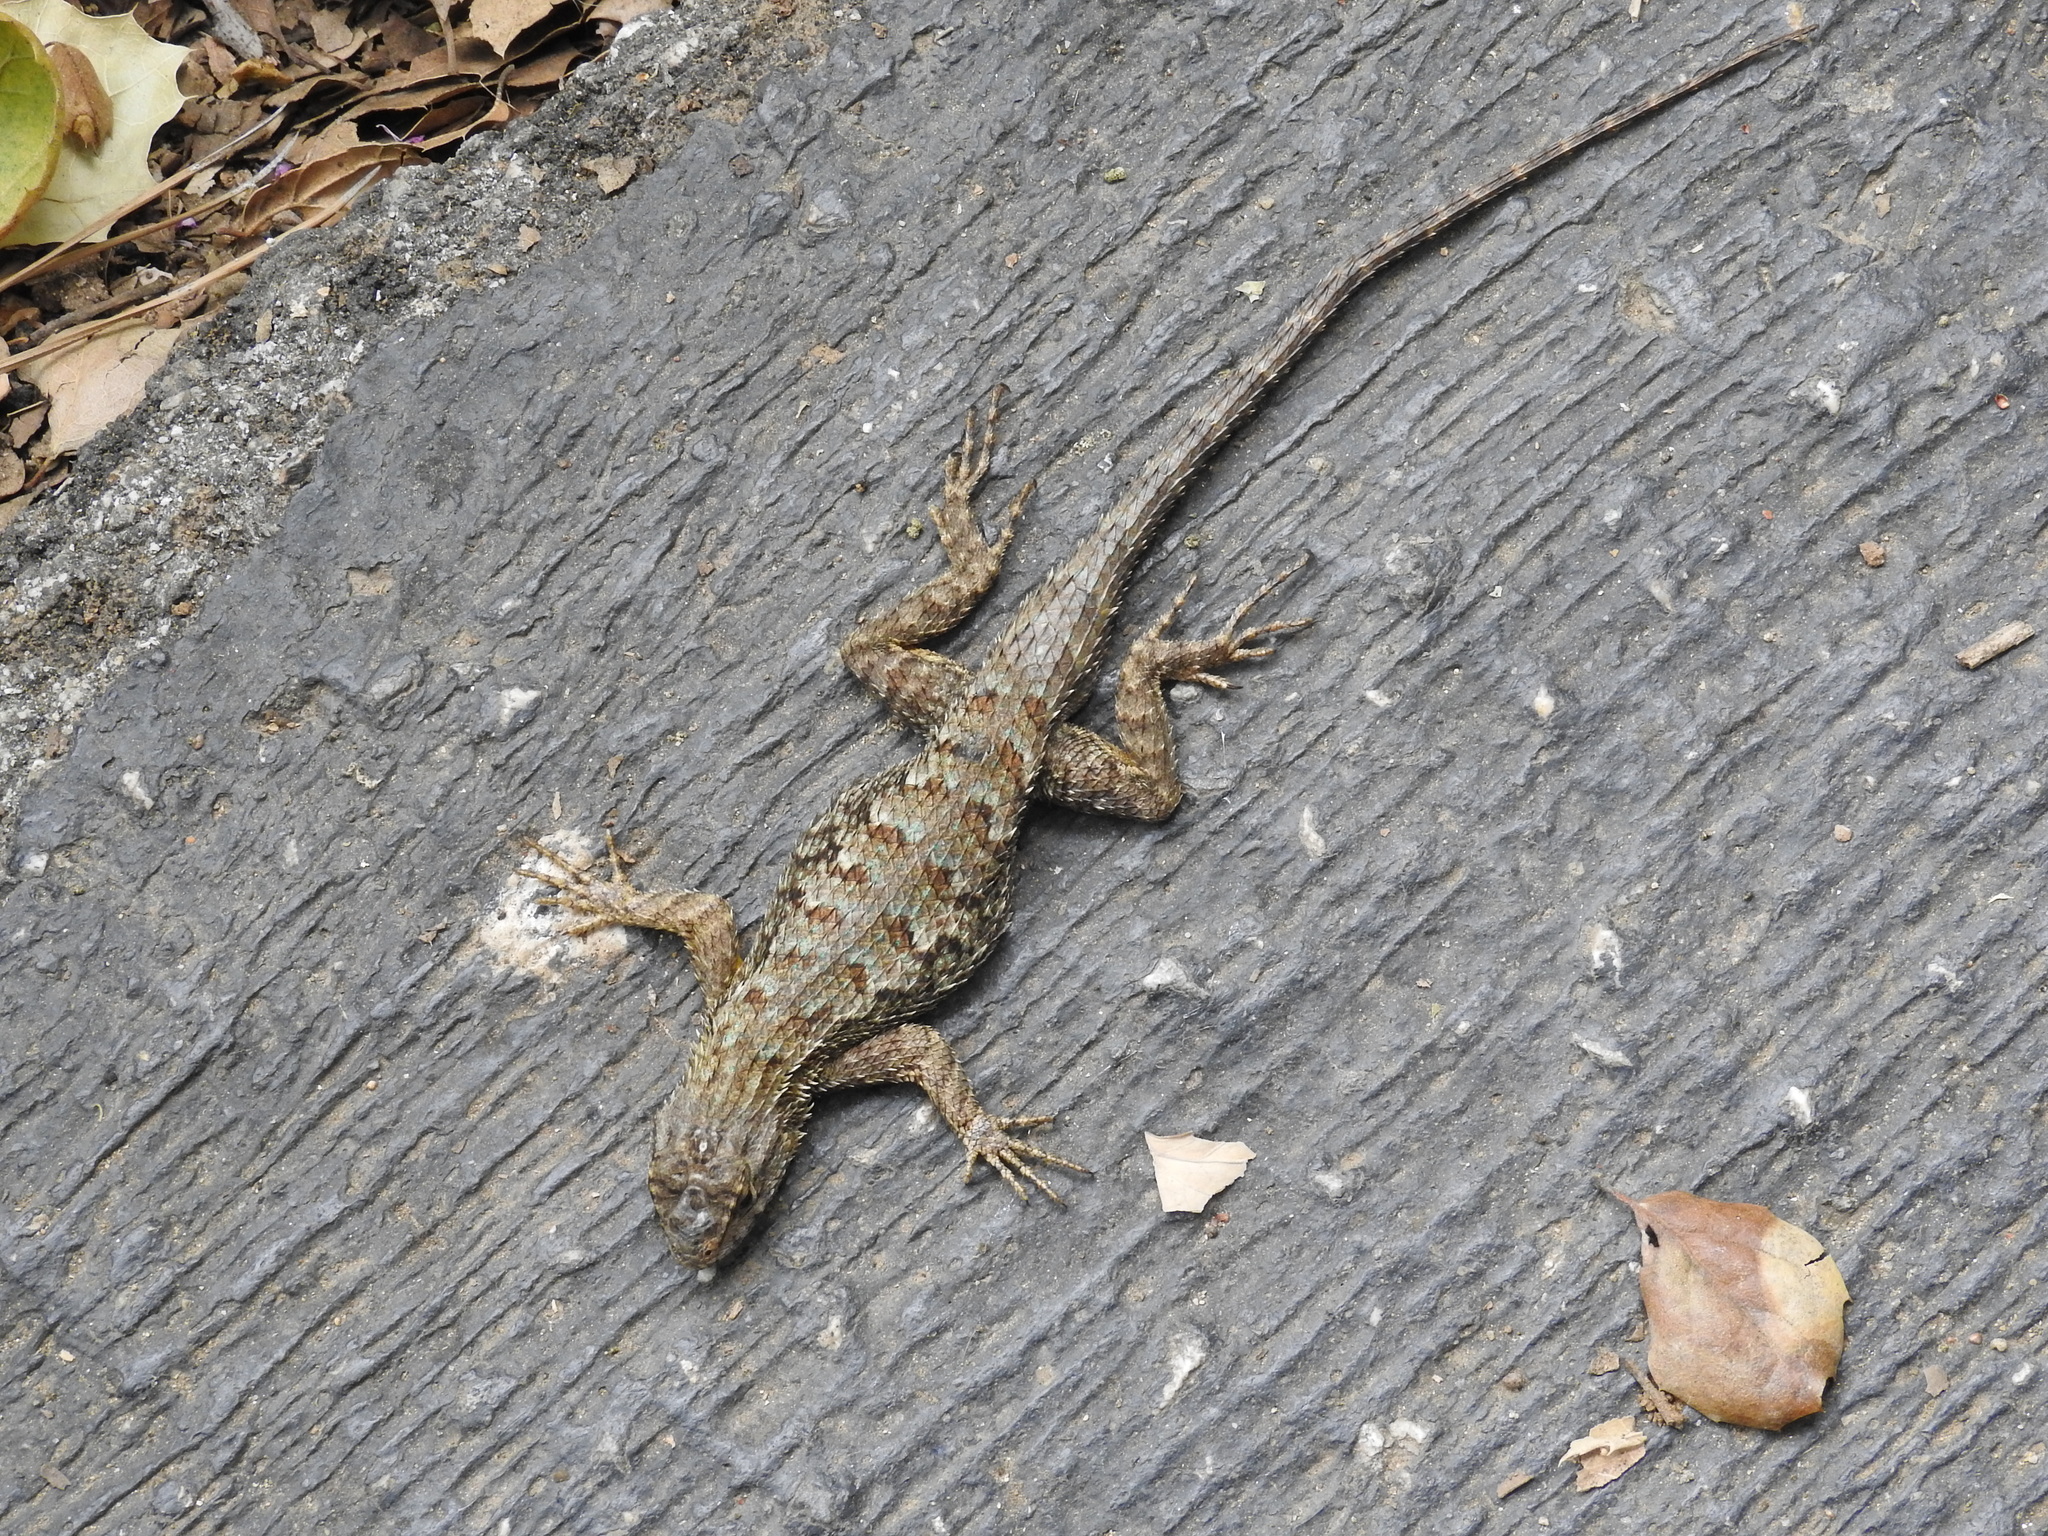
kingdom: Animalia
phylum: Chordata
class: Squamata
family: Phrynosomatidae
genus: Sceloporus
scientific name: Sceloporus occidentalis
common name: Western fence lizard
